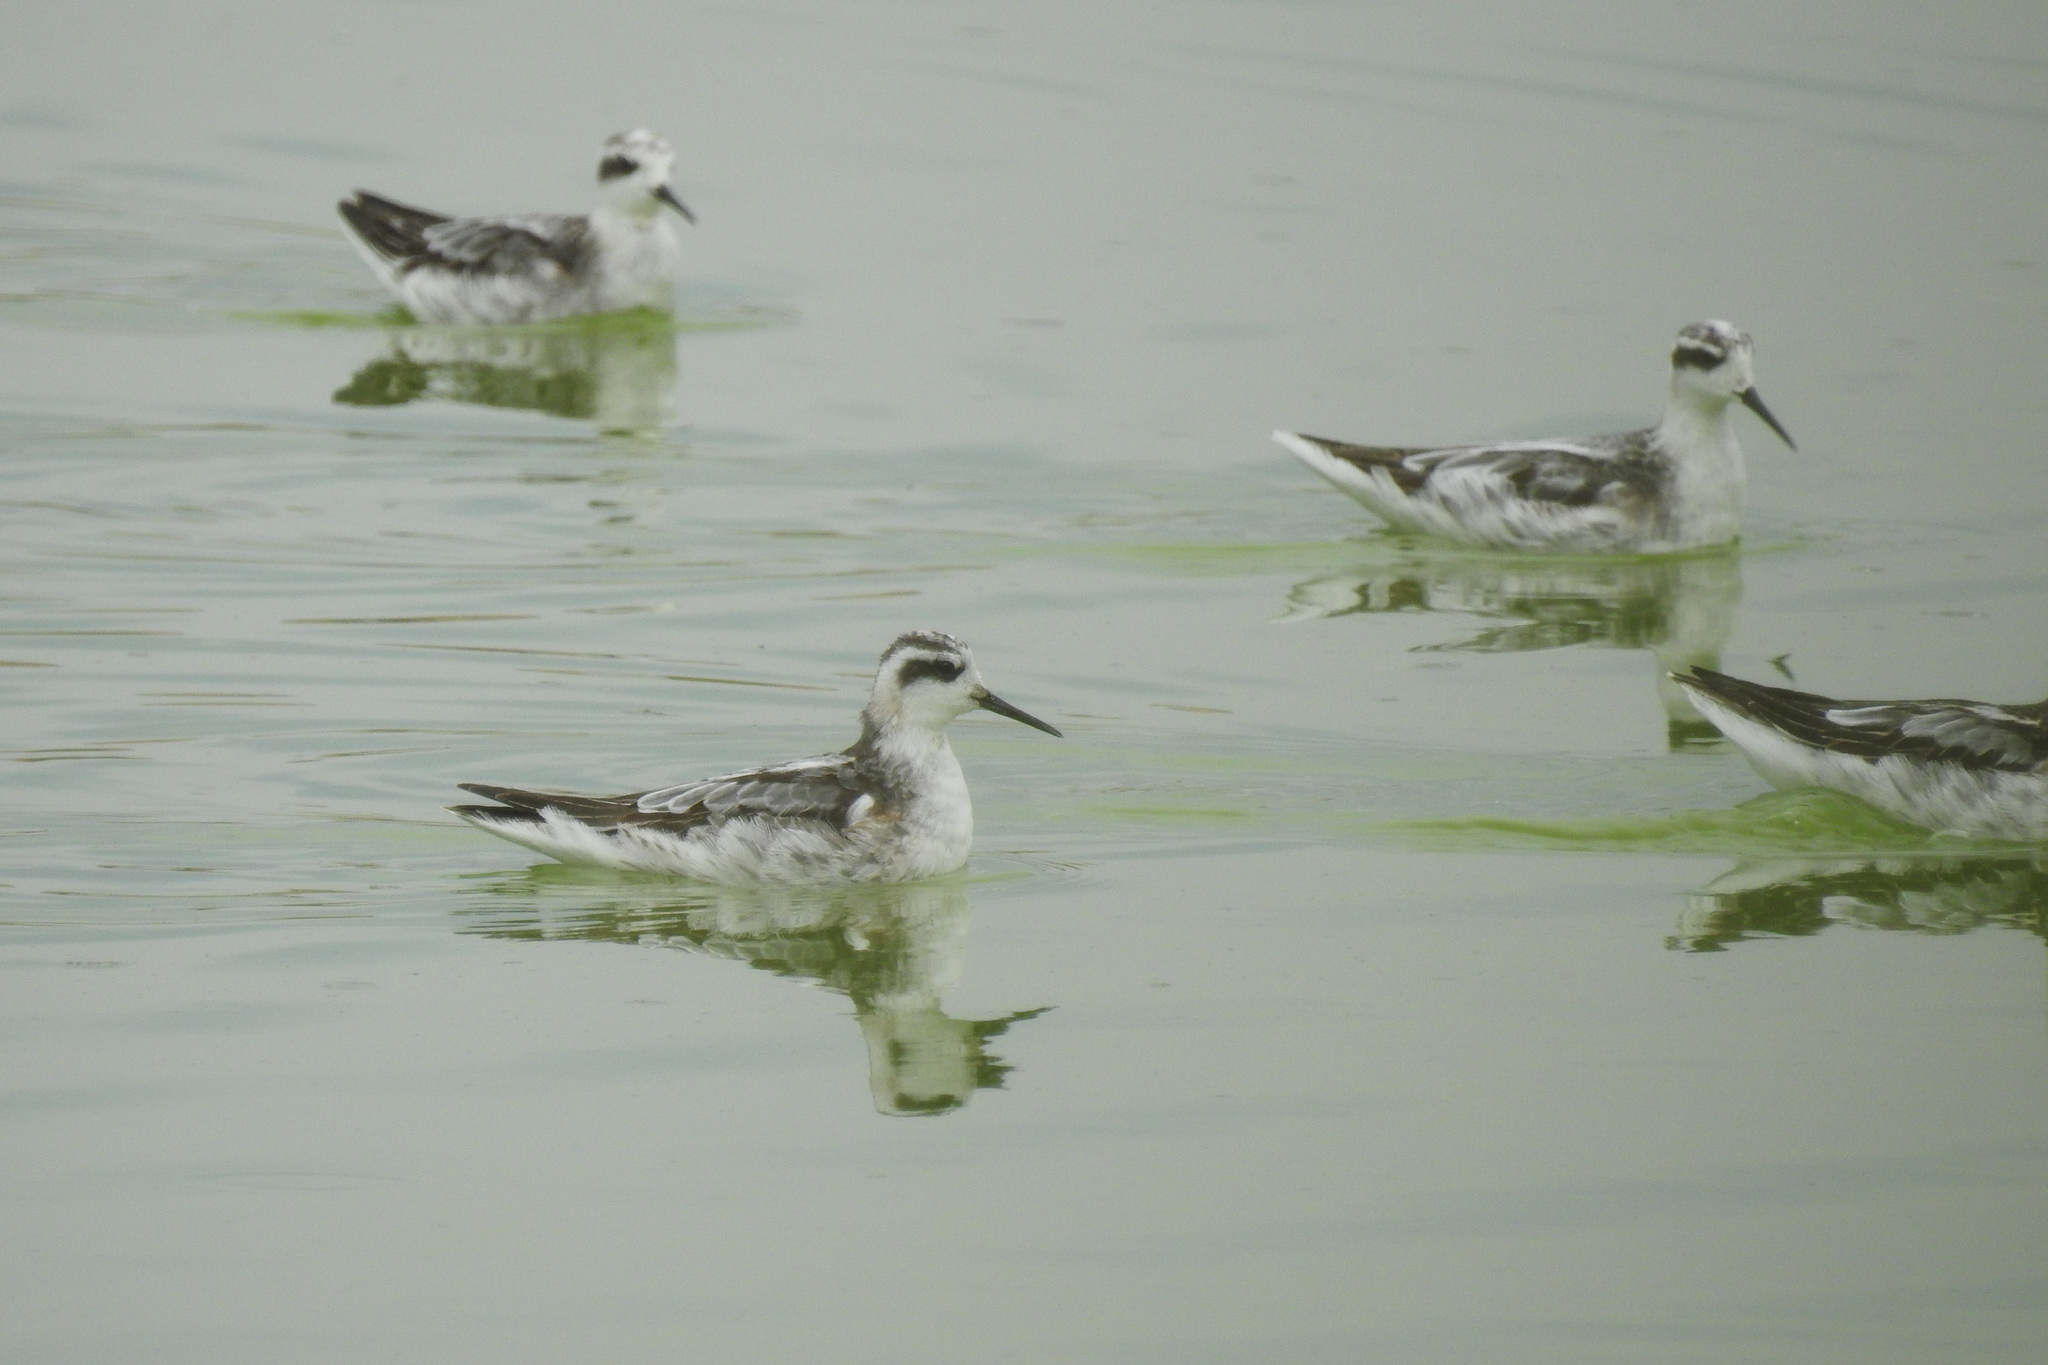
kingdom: Animalia
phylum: Chordata
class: Aves
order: Charadriiformes
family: Scolopacidae
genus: Phalaropus
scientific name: Phalaropus lobatus
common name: Red-necked phalarope
